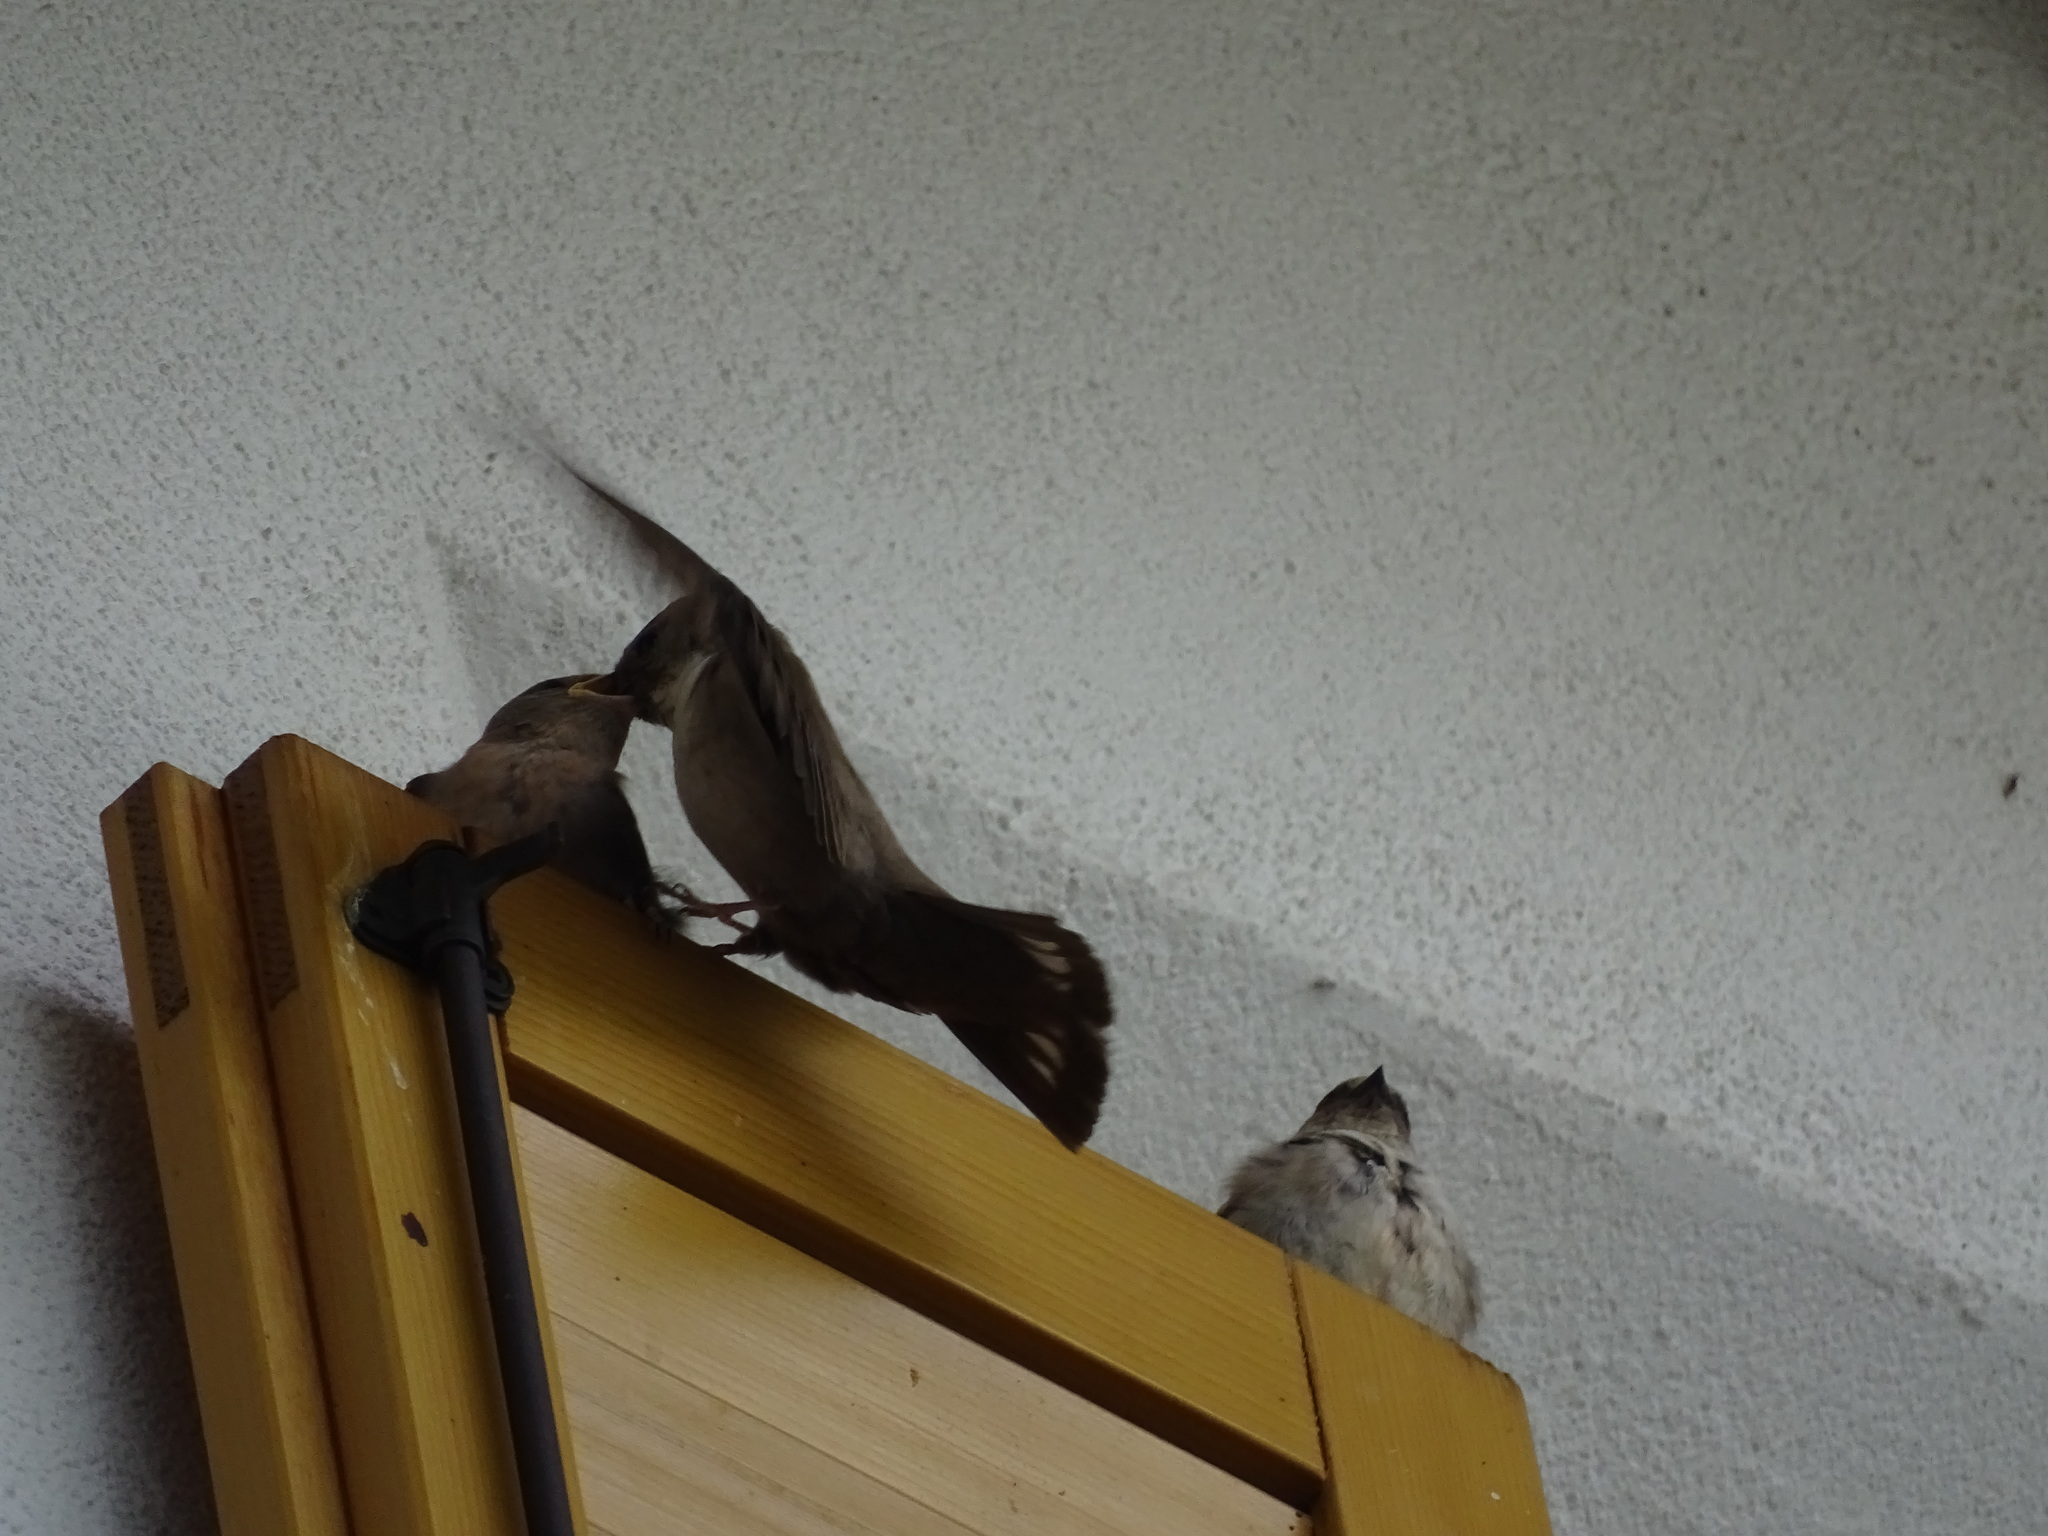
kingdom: Animalia
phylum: Chordata
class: Aves
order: Passeriformes
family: Hirundinidae
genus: Ptyonoprogne
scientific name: Ptyonoprogne rupestris
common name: Eurasian crag martin
